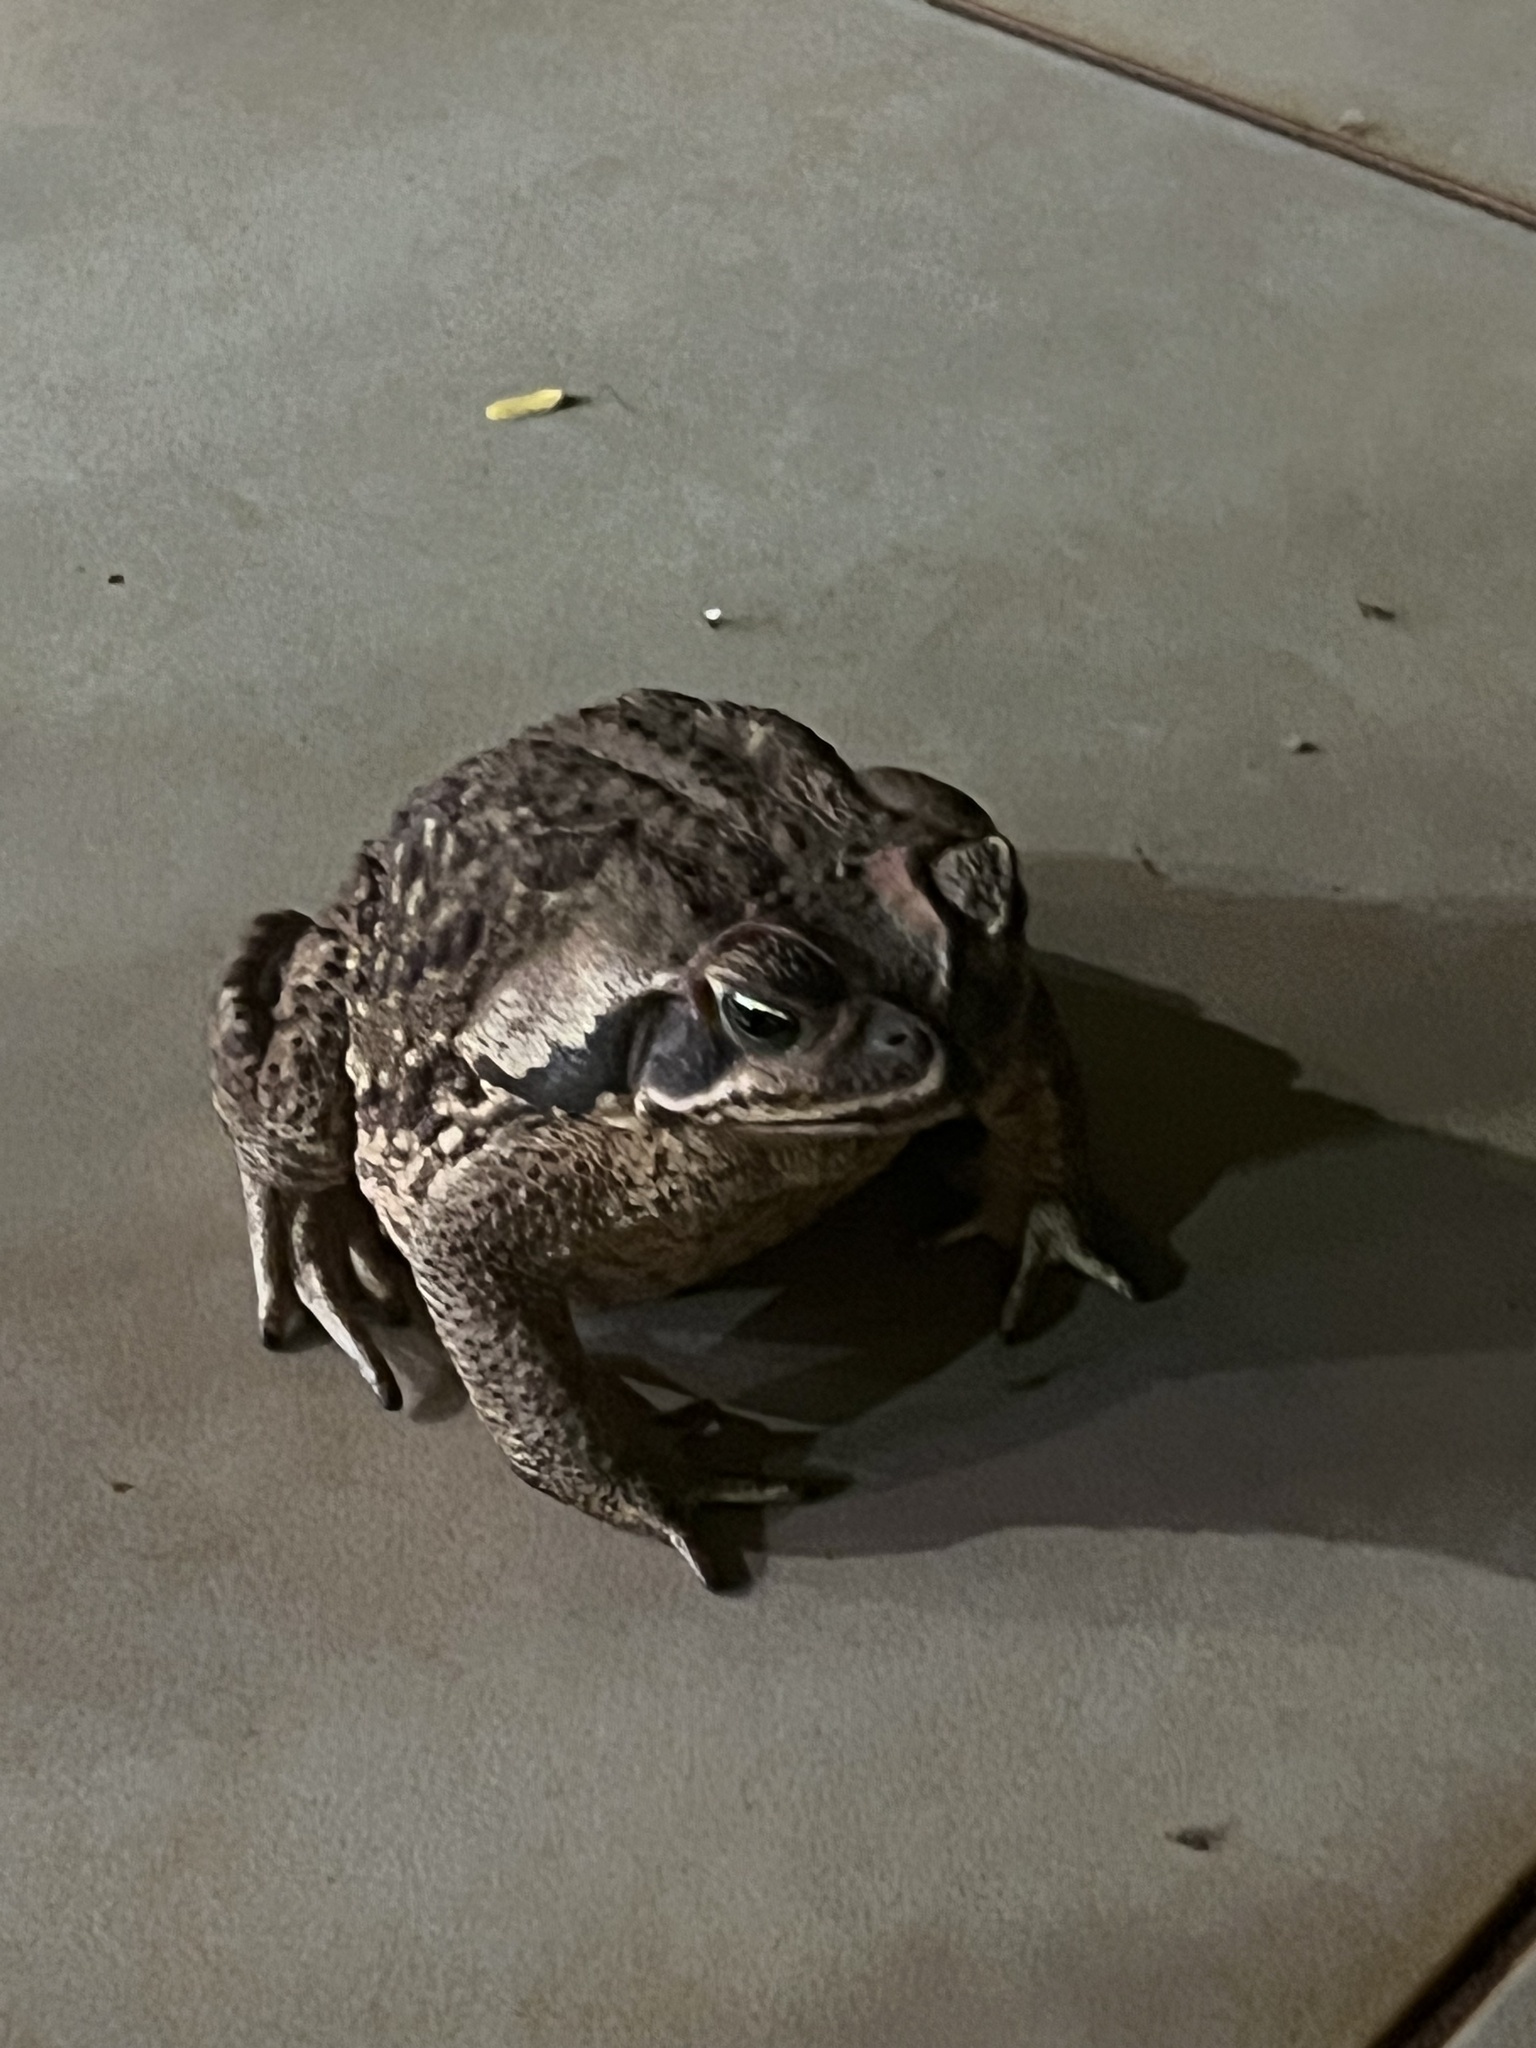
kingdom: Animalia
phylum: Chordata
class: Amphibia
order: Anura
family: Bufonidae
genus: Rhinella
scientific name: Rhinella diptycha
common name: Cope's toad
